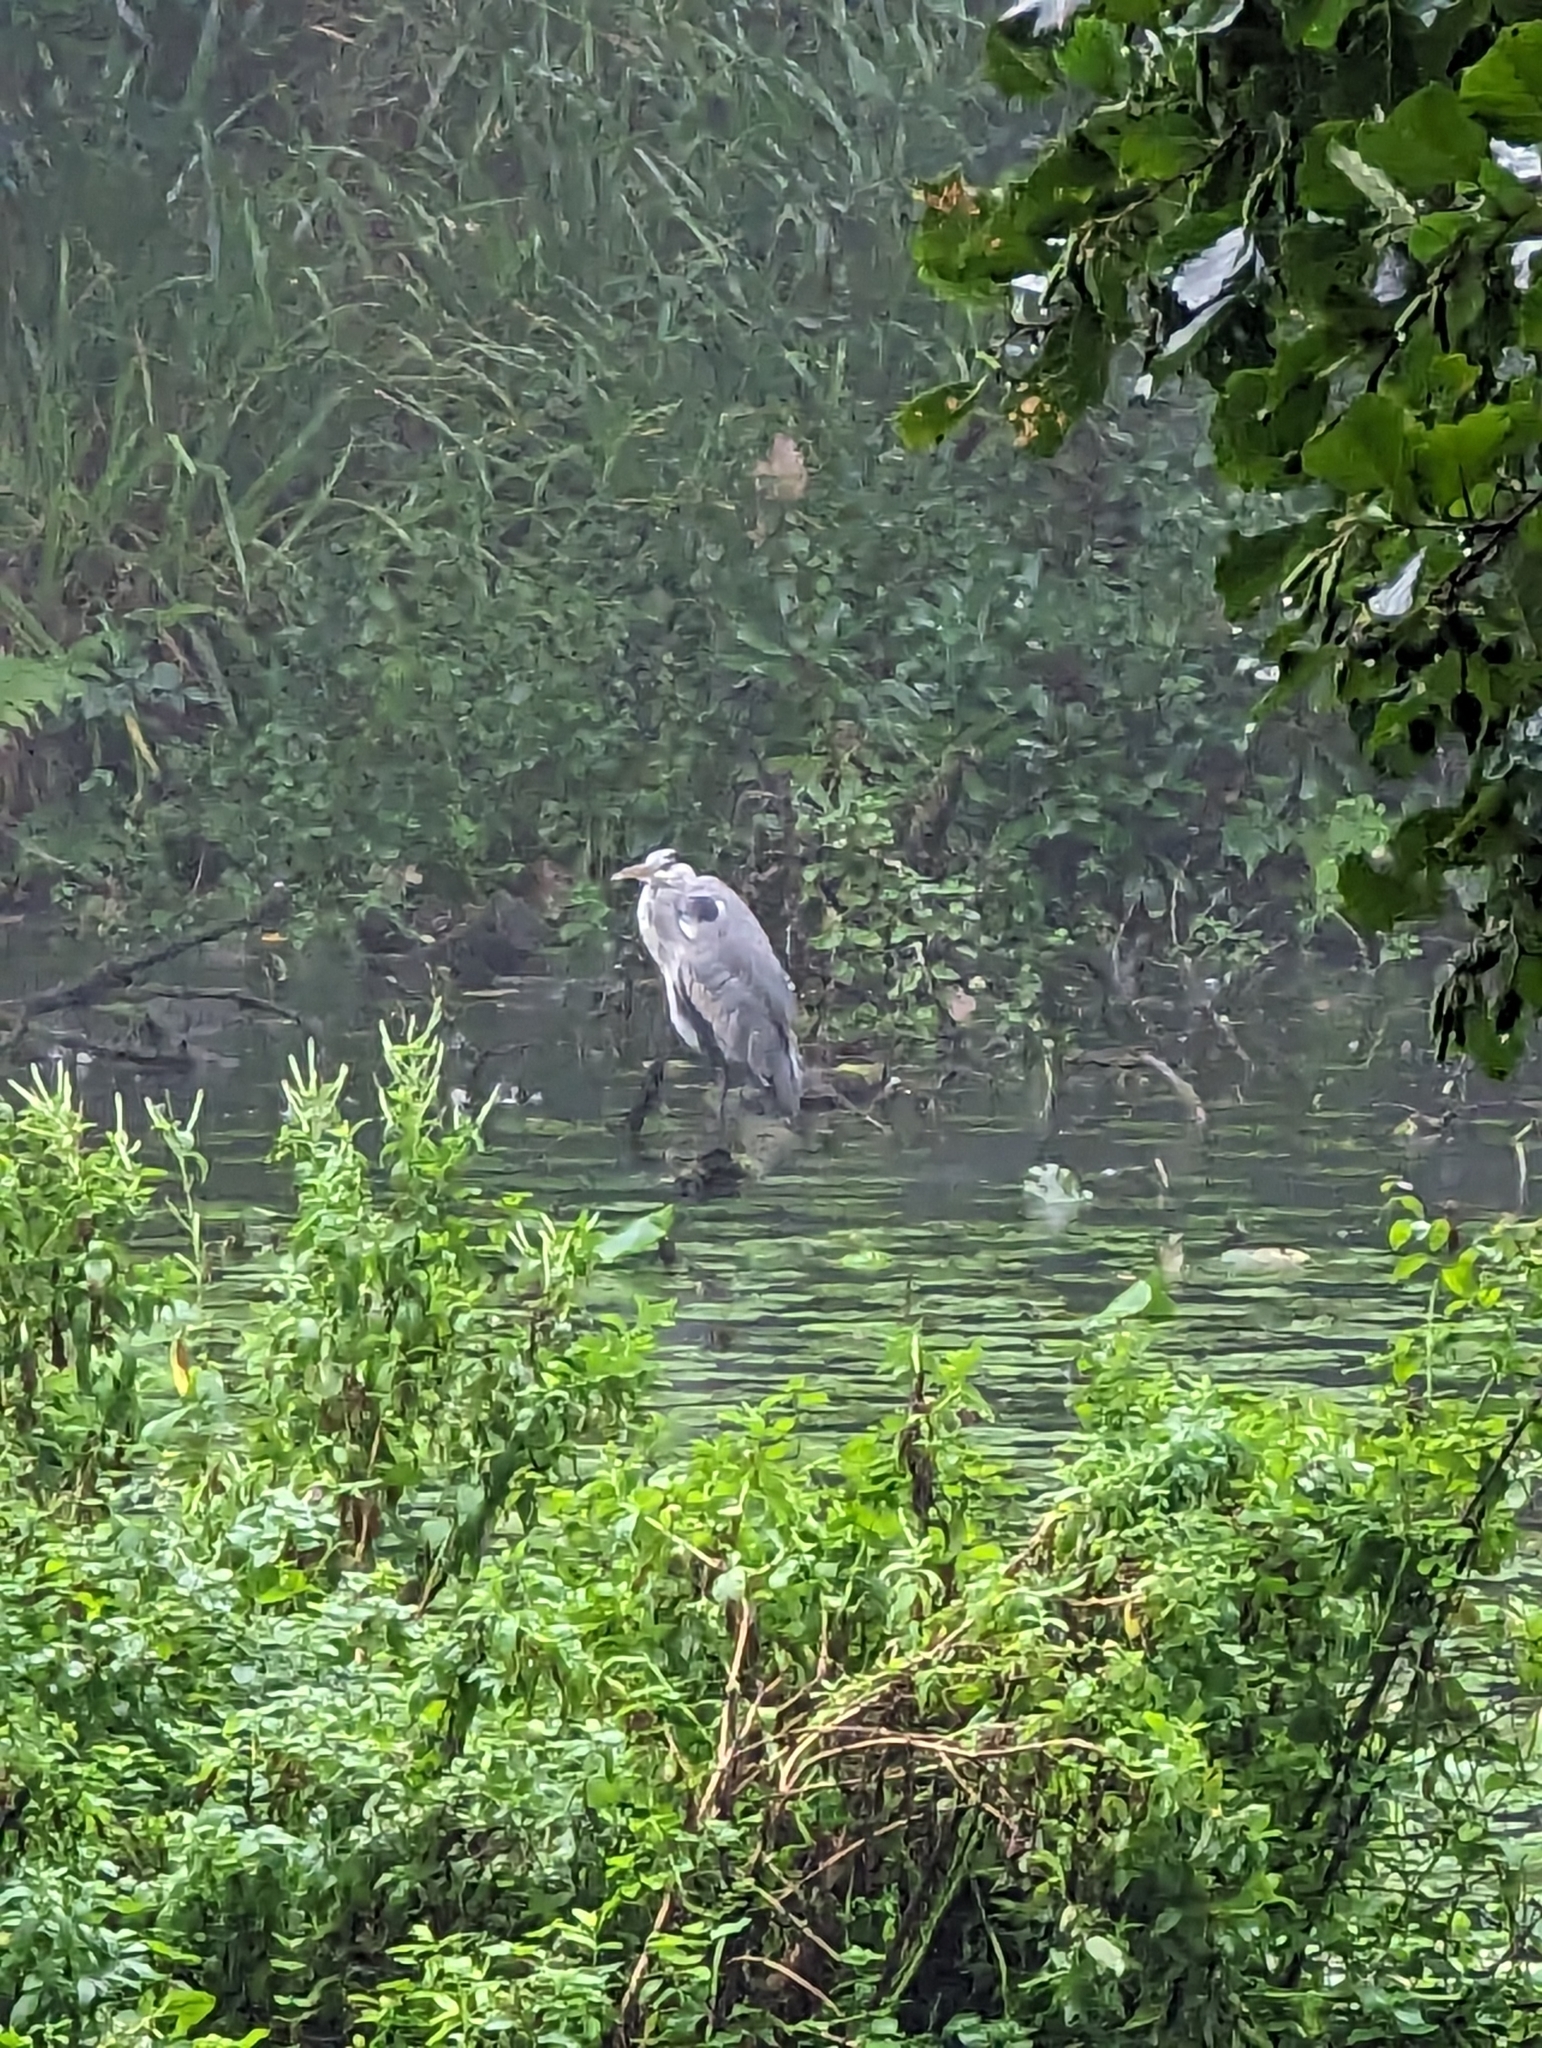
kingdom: Animalia
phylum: Chordata
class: Aves
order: Pelecaniformes
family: Ardeidae
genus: Ardea
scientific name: Ardea cinerea
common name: Grey heron
